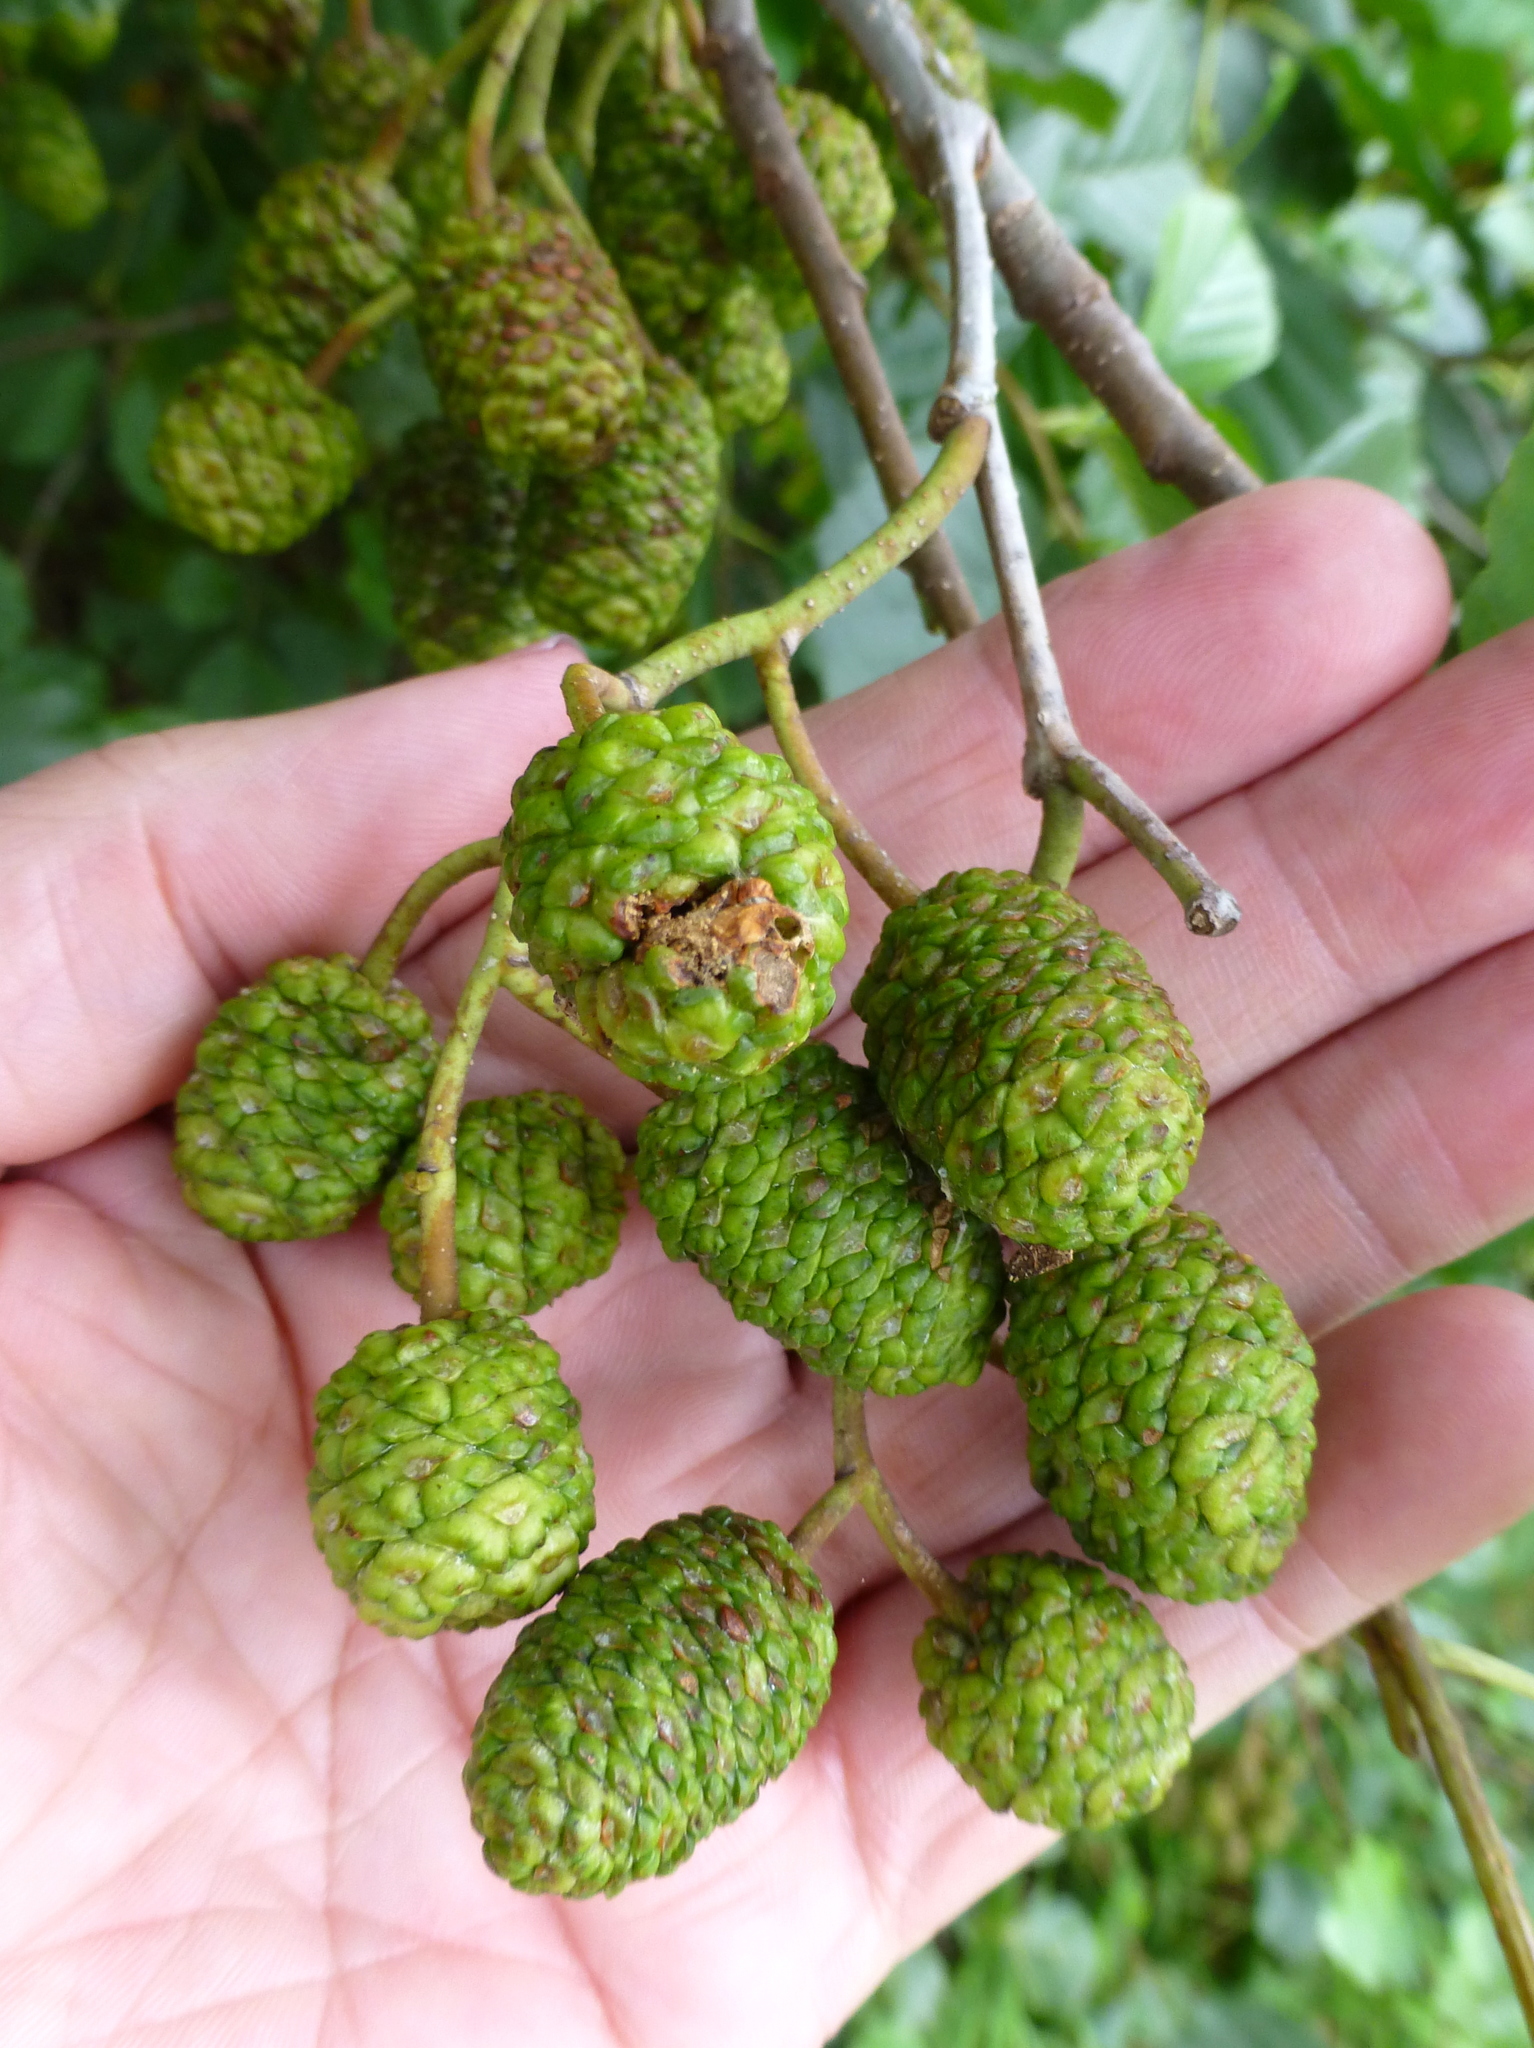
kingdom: Plantae
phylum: Tracheophyta
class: Magnoliopsida
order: Fagales
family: Betulaceae
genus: Alnus
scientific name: Alnus glutinosa
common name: Black alder
